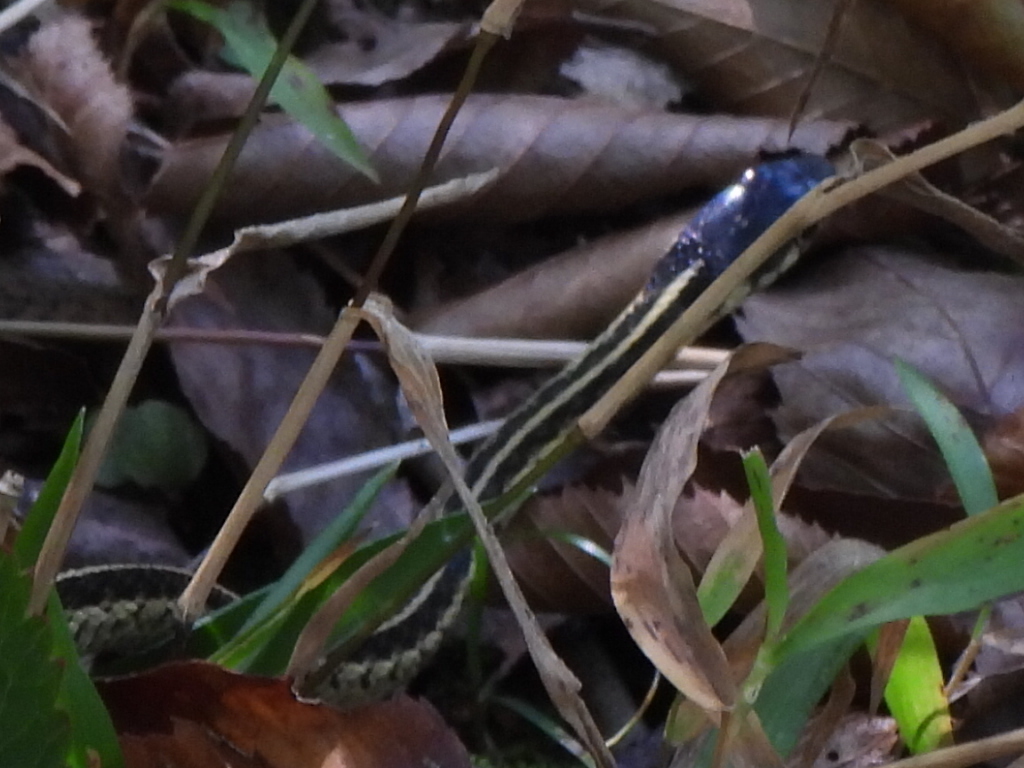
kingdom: Animalia
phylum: Chordata
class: Squamata
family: Colubridae
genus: Thamnophis
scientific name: Thamnophis sirtalis
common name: Common garter snake
